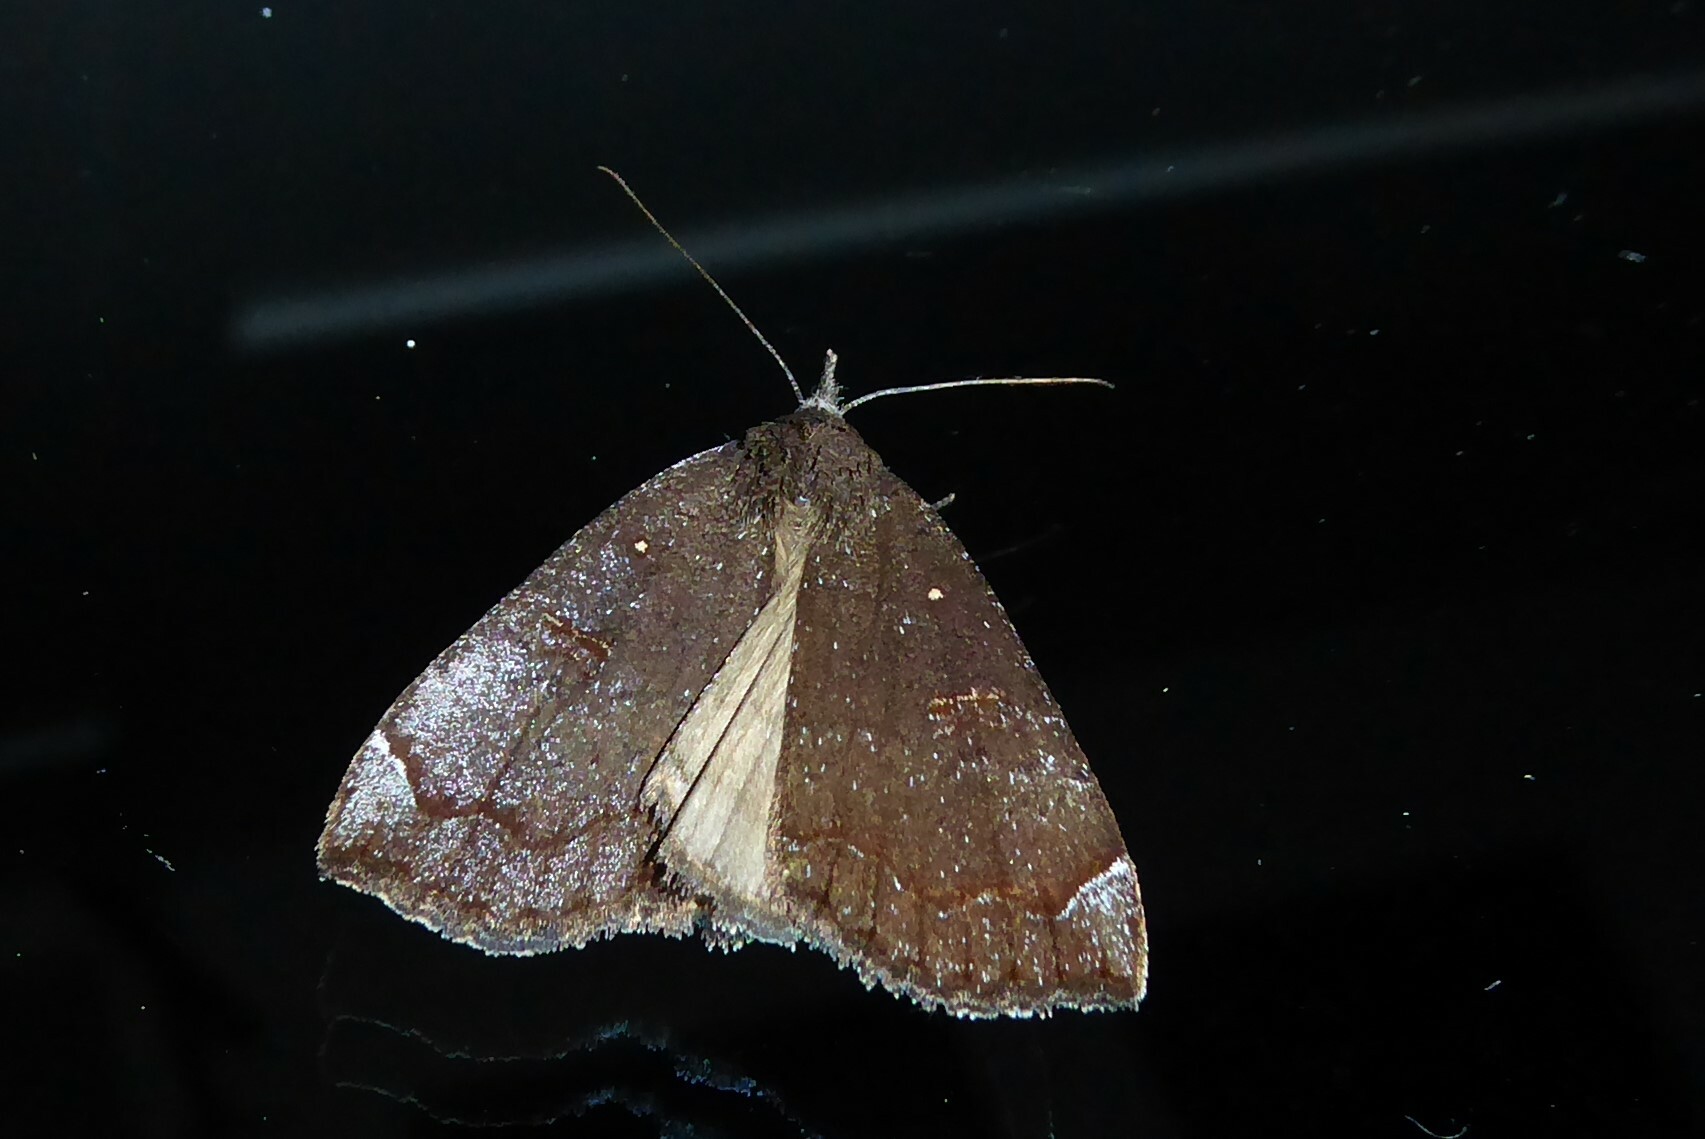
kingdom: Animalia
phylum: Arthropoda
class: Insecta
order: Lepidoptera
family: Erebidae
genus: Rhapsa
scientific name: Rhapsa scotosialis
